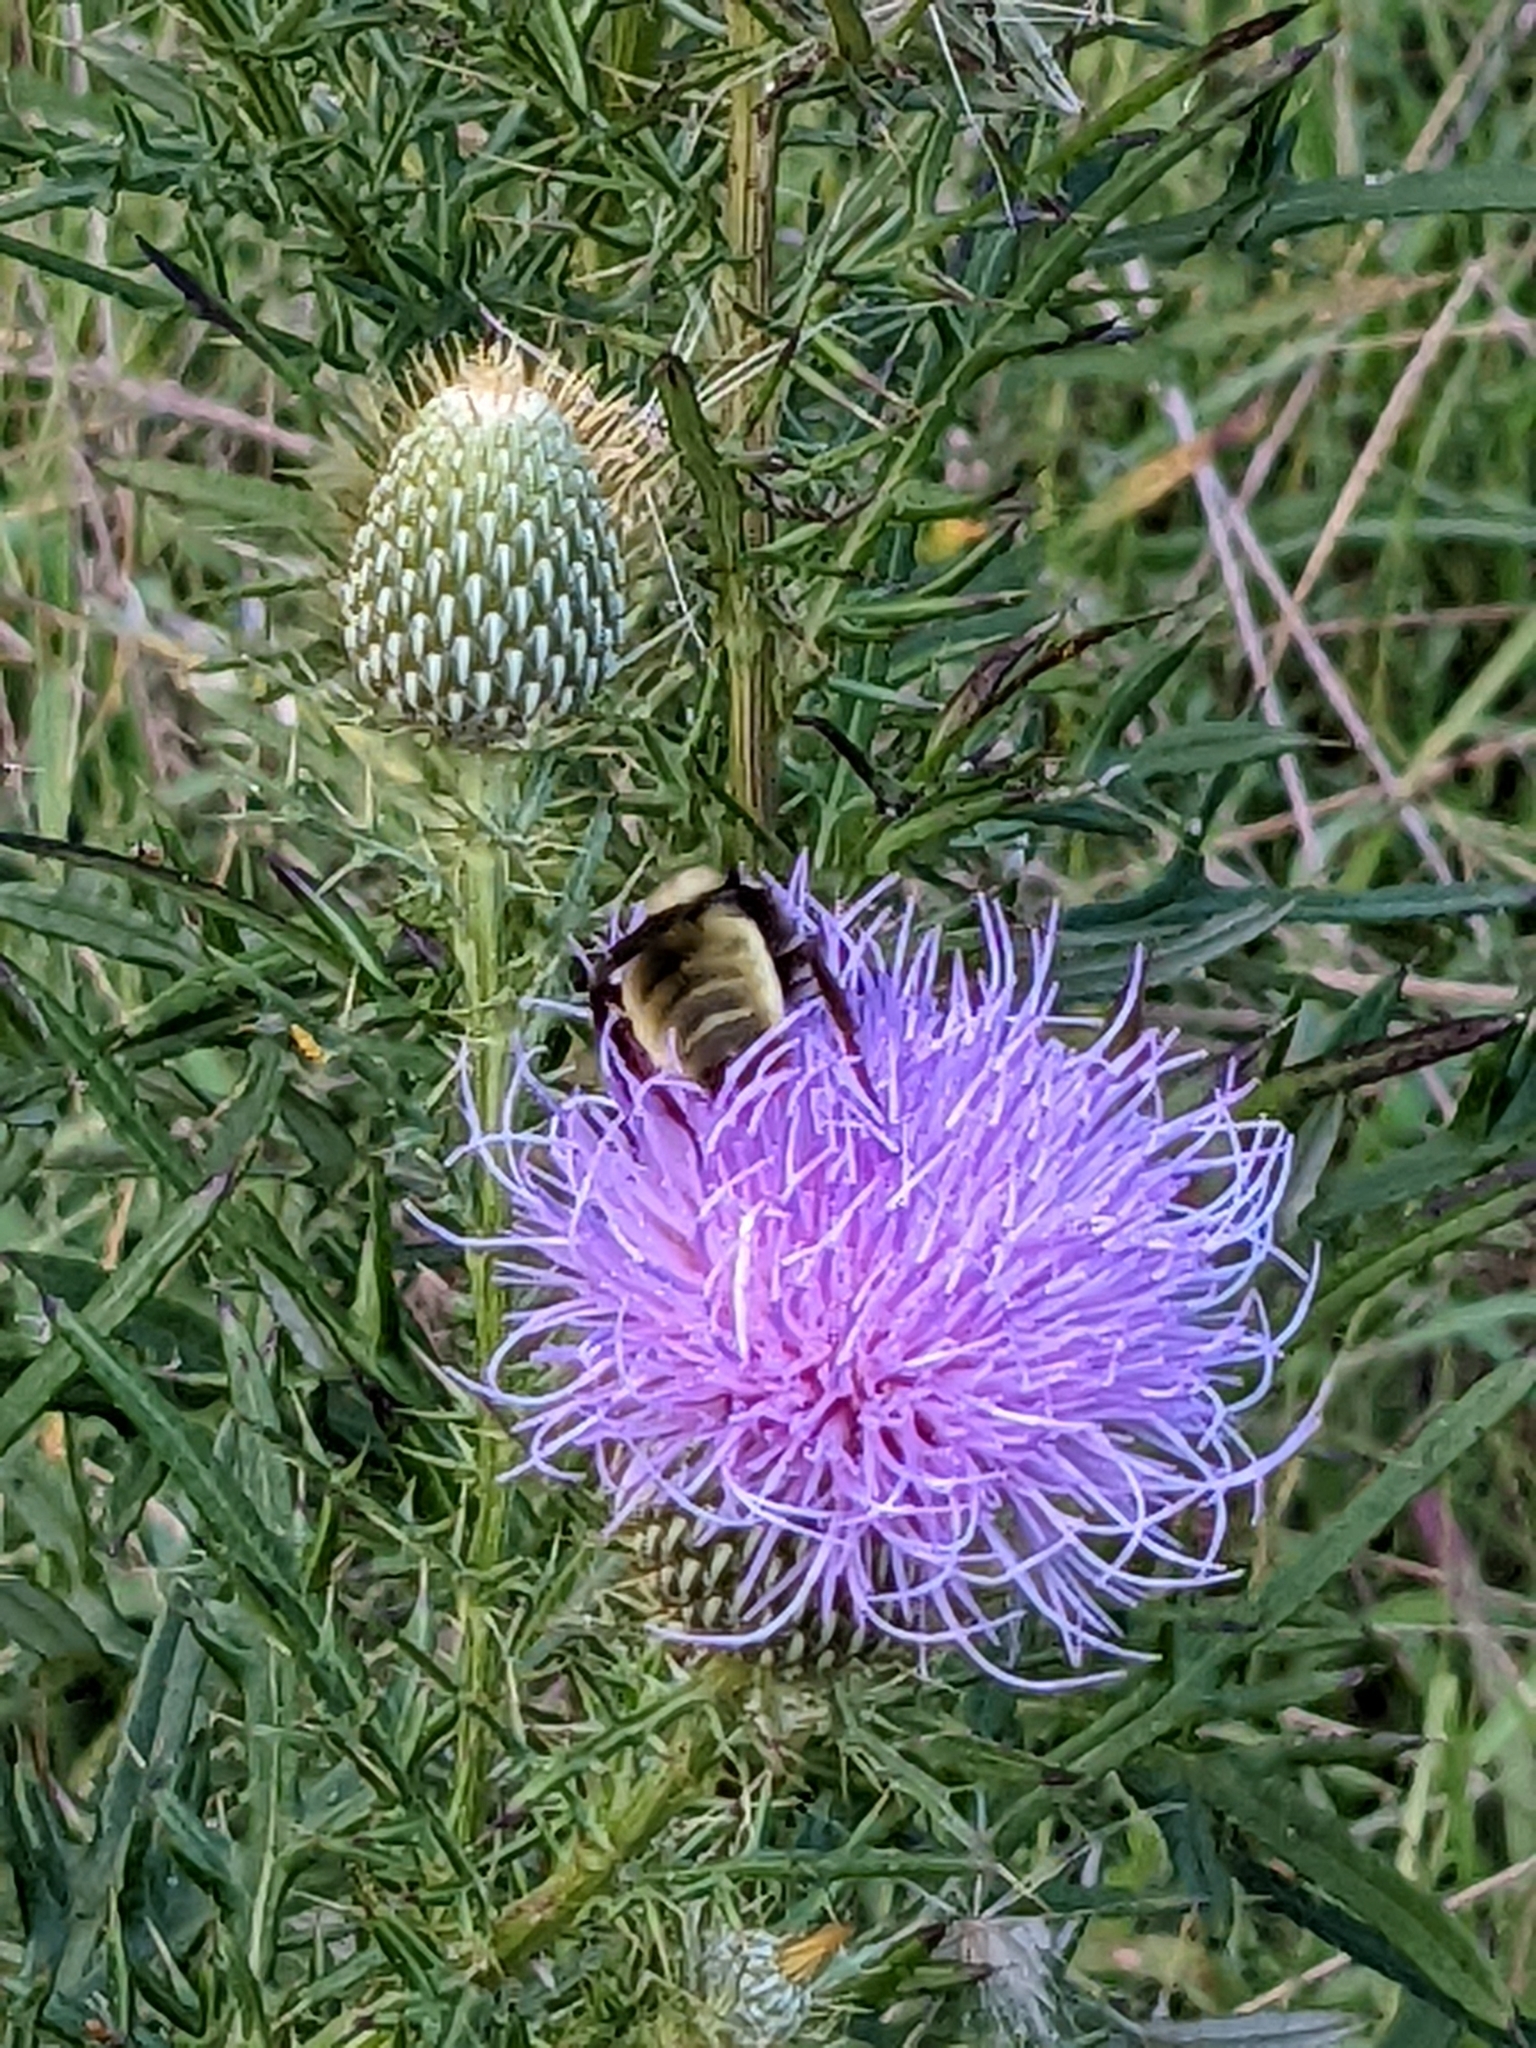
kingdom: Animalia
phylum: Arthropoda
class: Insecta
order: Hymenoptera
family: Apidae
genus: Bombus
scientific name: Bombus pensylvanicus
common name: Bumble bee
